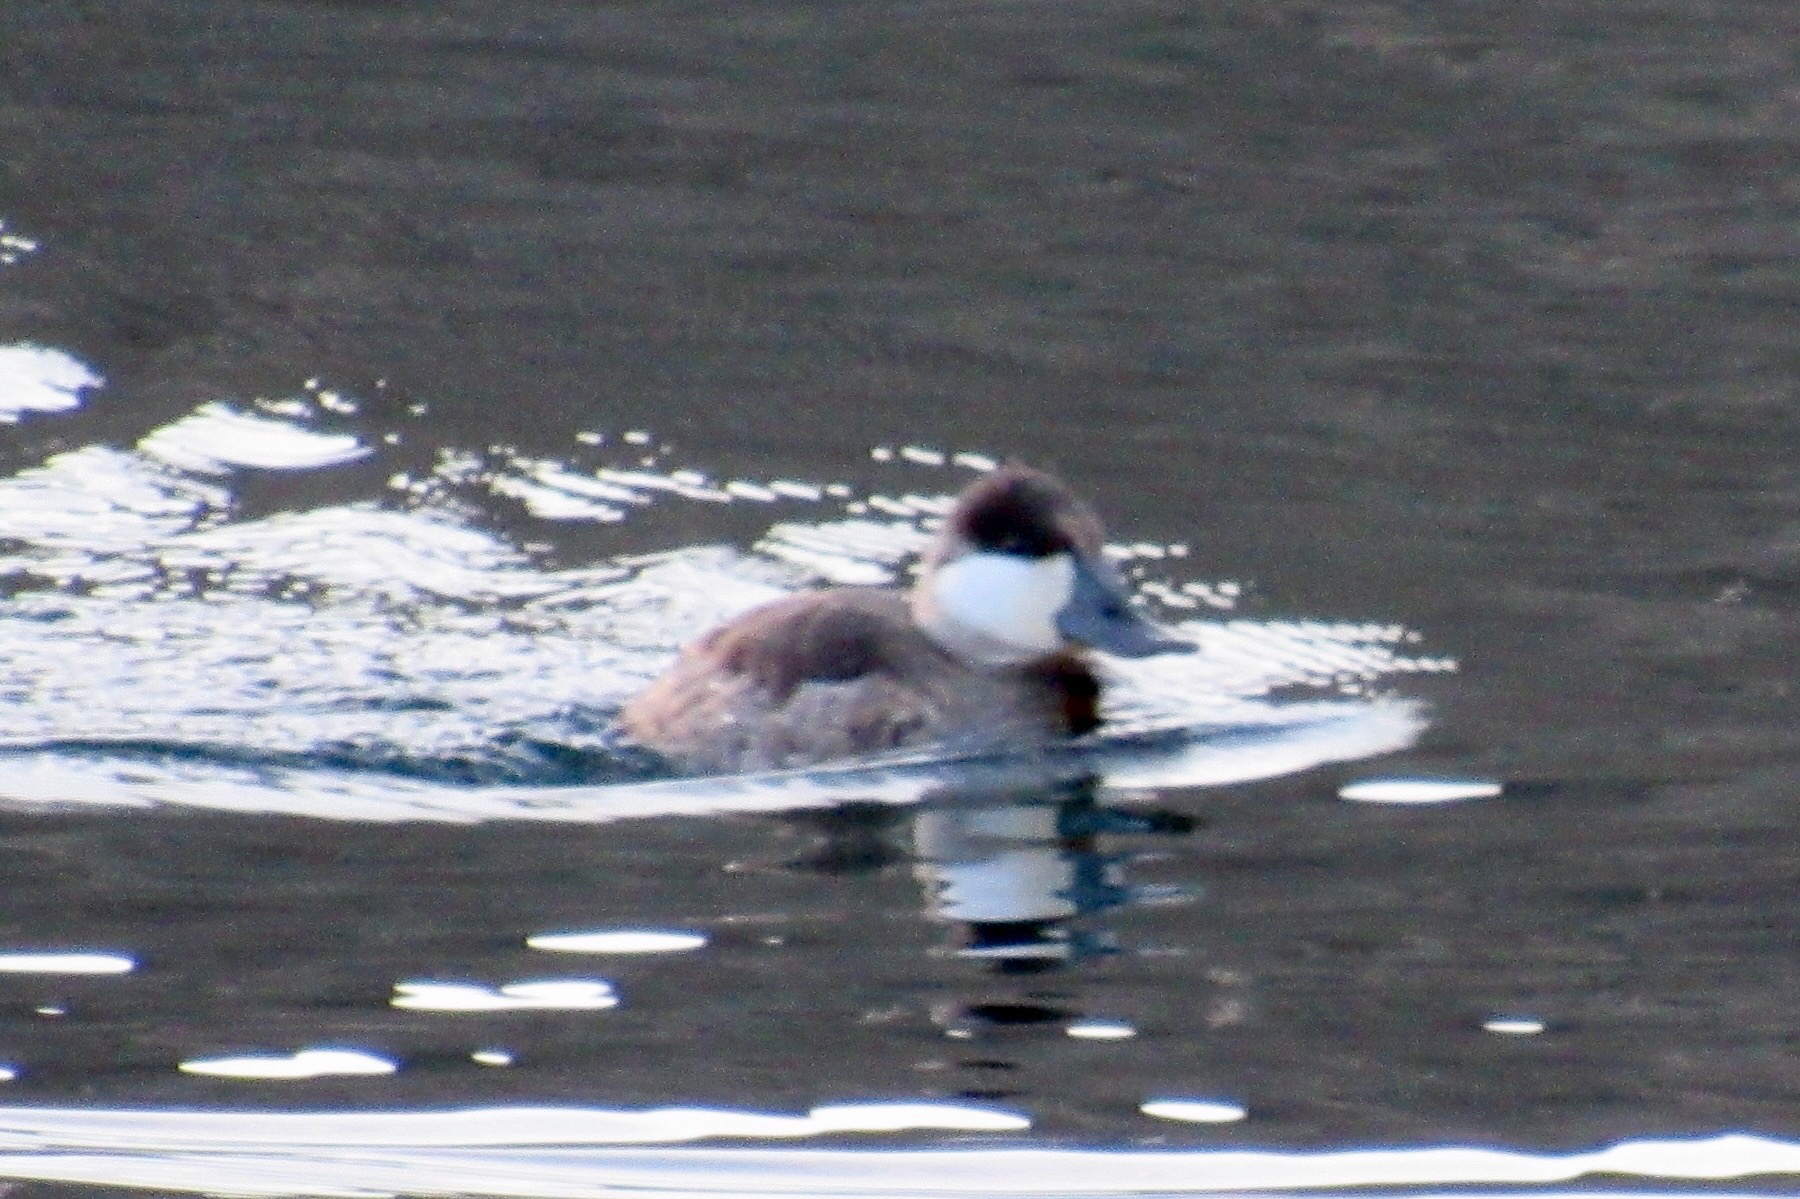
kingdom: Animalia
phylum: Chordata
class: Aves
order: Anseriformes
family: Anatidae
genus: Oxyura
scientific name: Oxyura jamaicensis
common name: Ruddy duck
